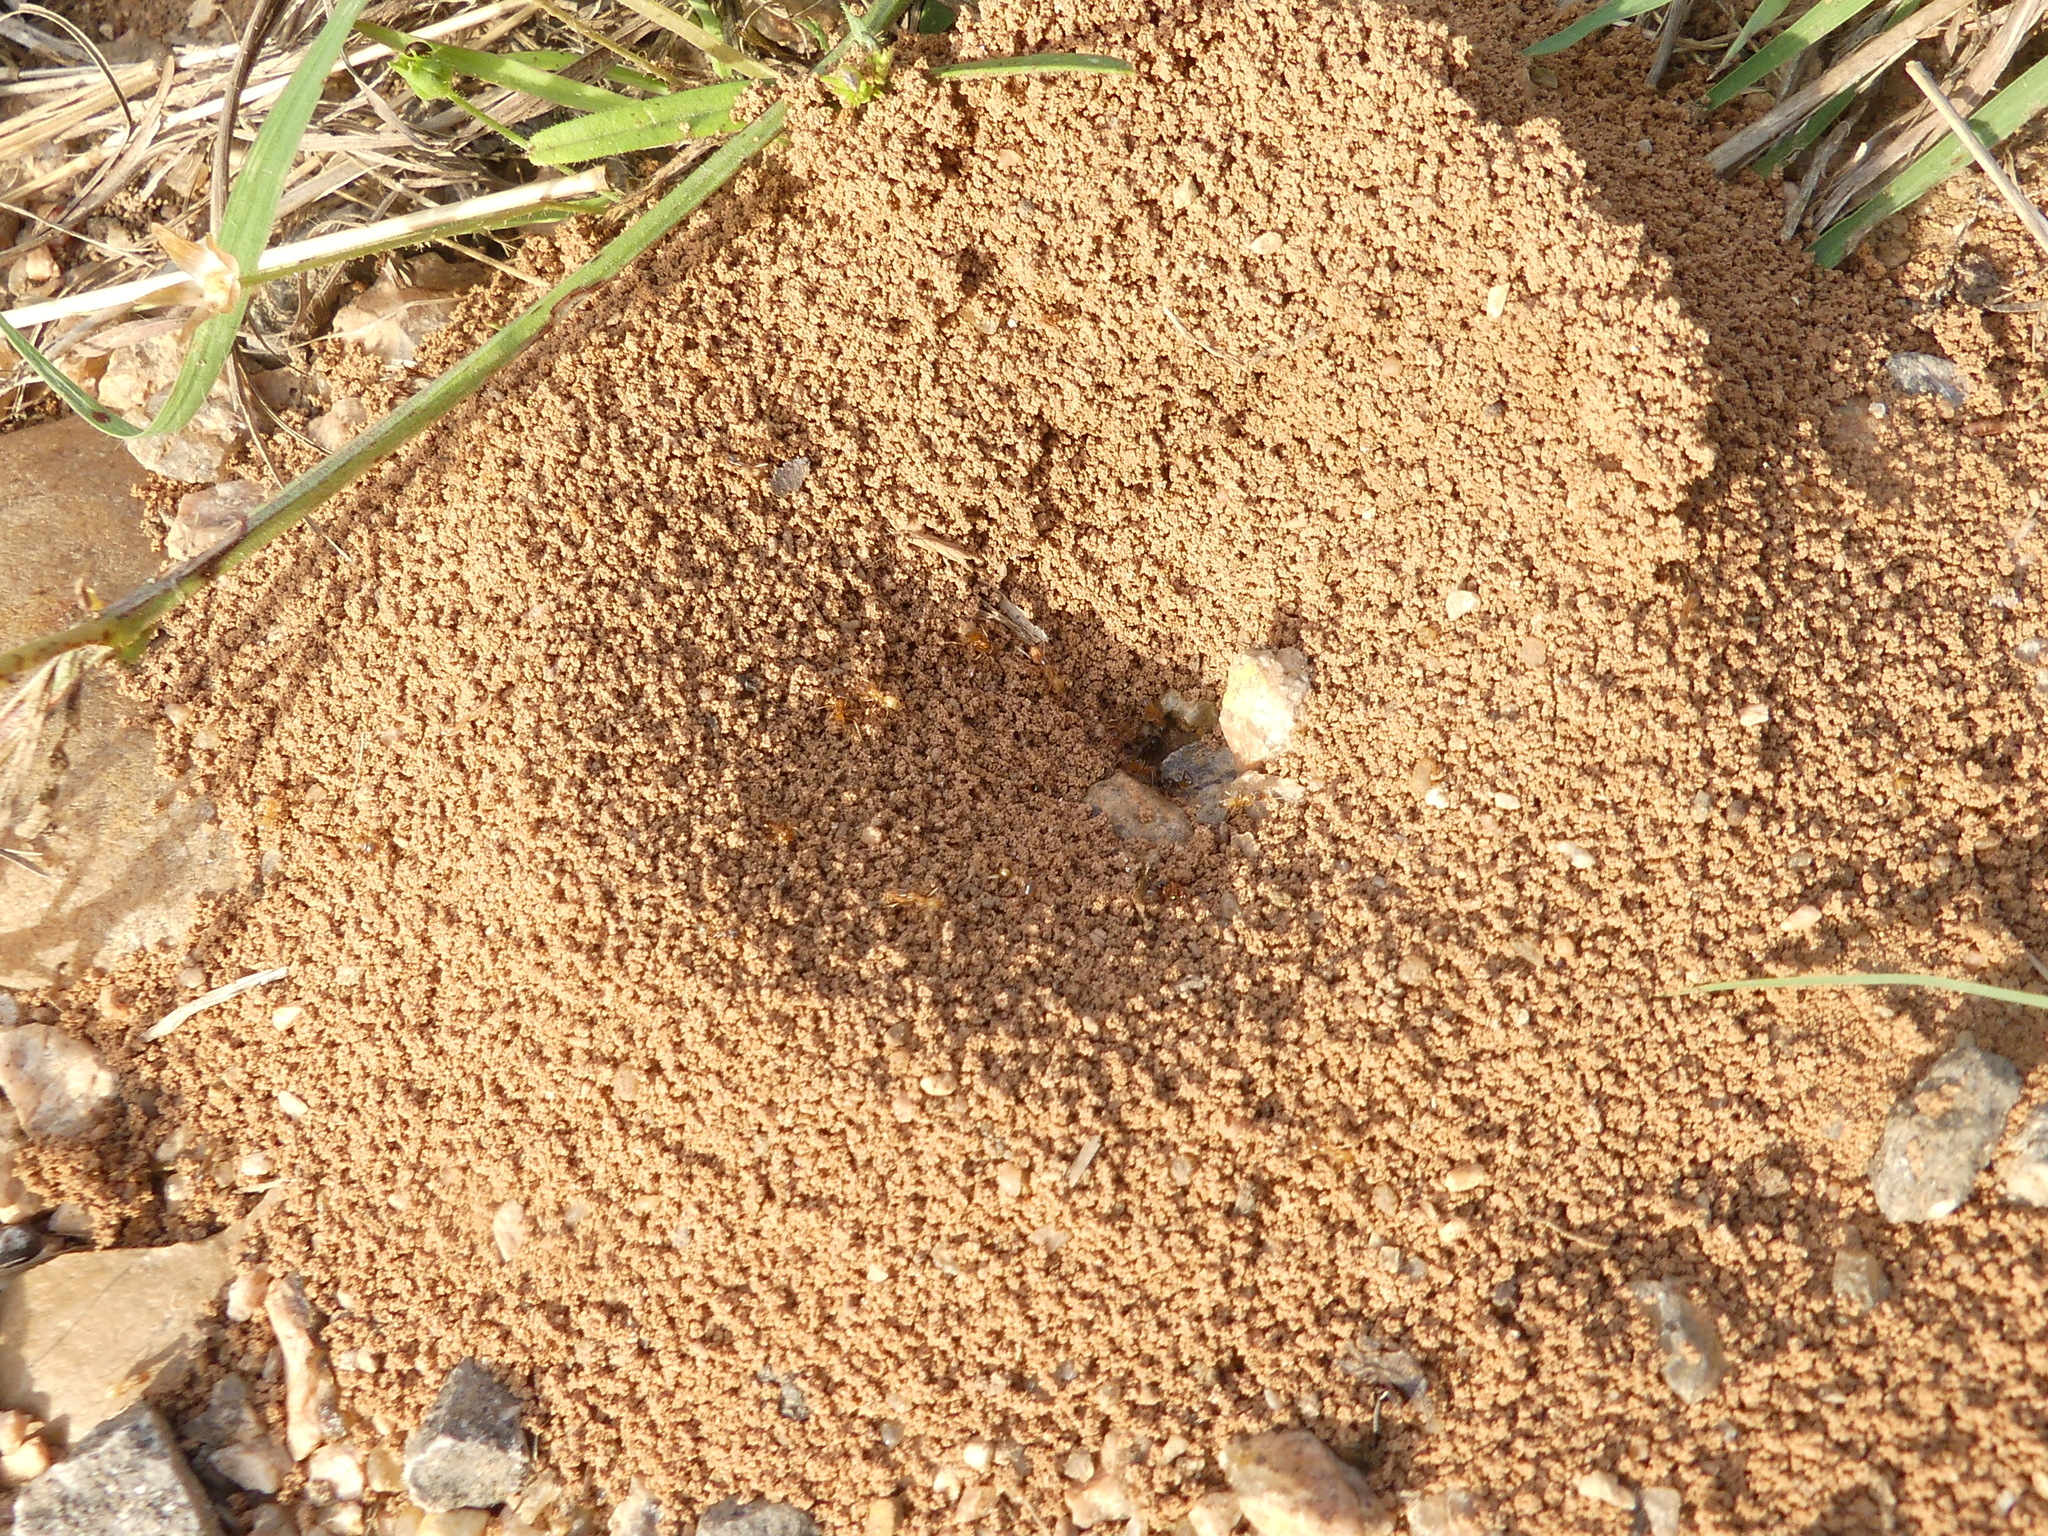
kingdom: Animalia
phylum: Arthropoda
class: Insecta
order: Hymenoptera
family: Formicidae
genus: Dorymyrmex
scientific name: Dorymyrmex flavus
